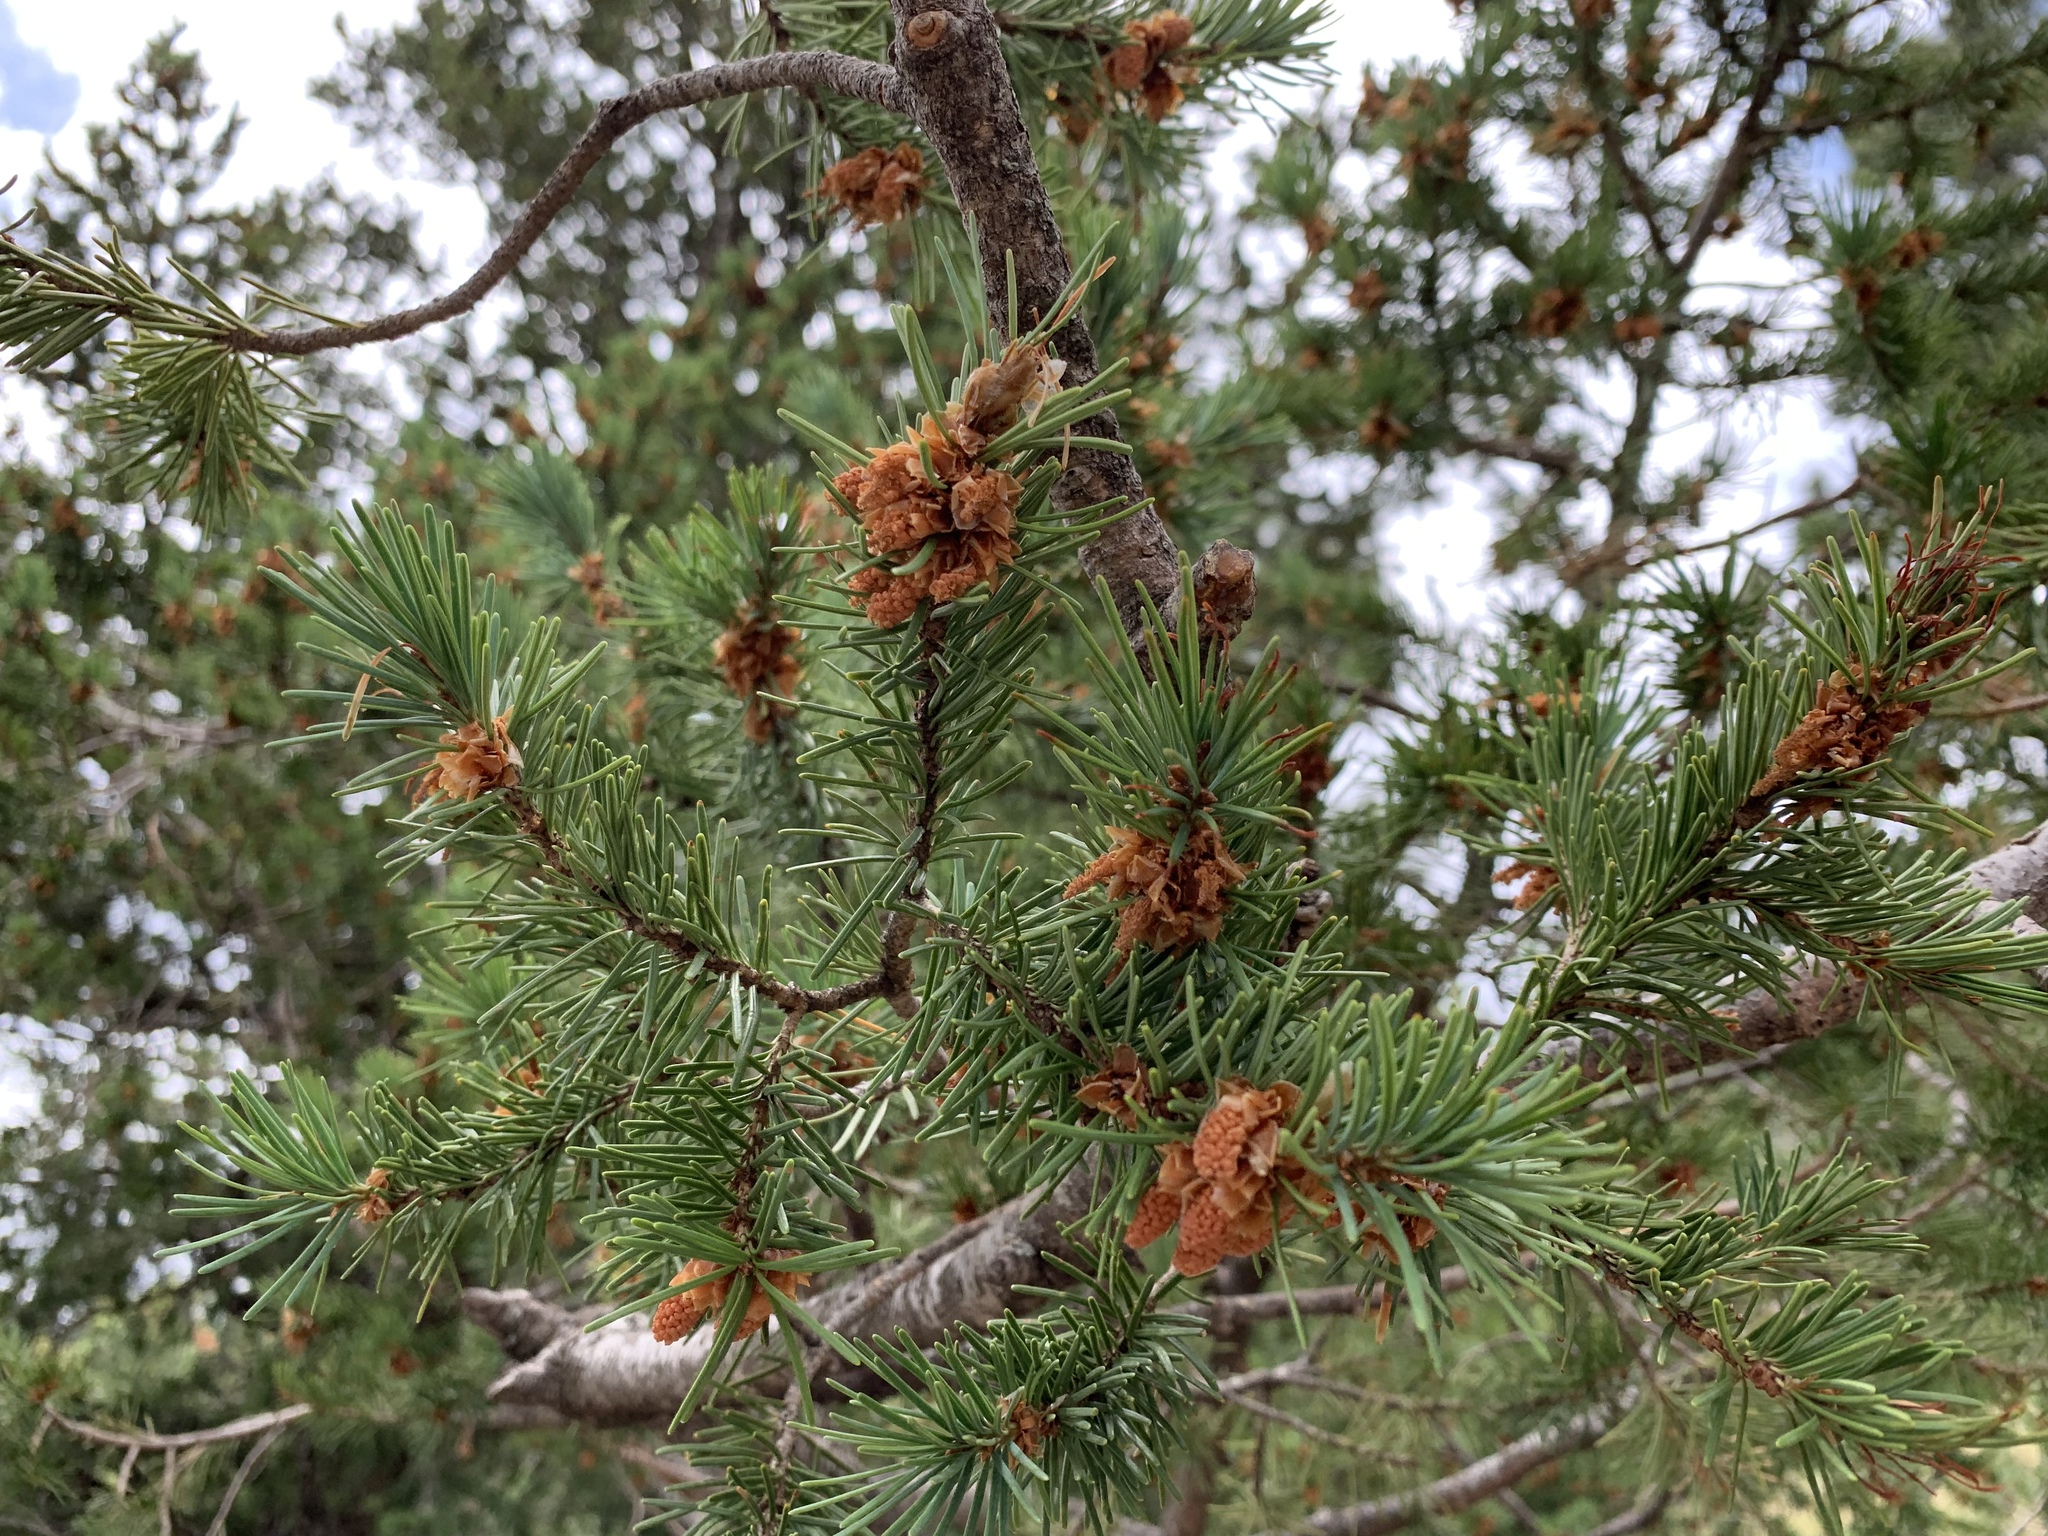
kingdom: Plantae
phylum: Tracheophyta
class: Pinopsida
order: Pinales
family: Pinaceae
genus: Pseudotsuga
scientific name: Pseudotsuga menziesii
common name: Douglas fir
